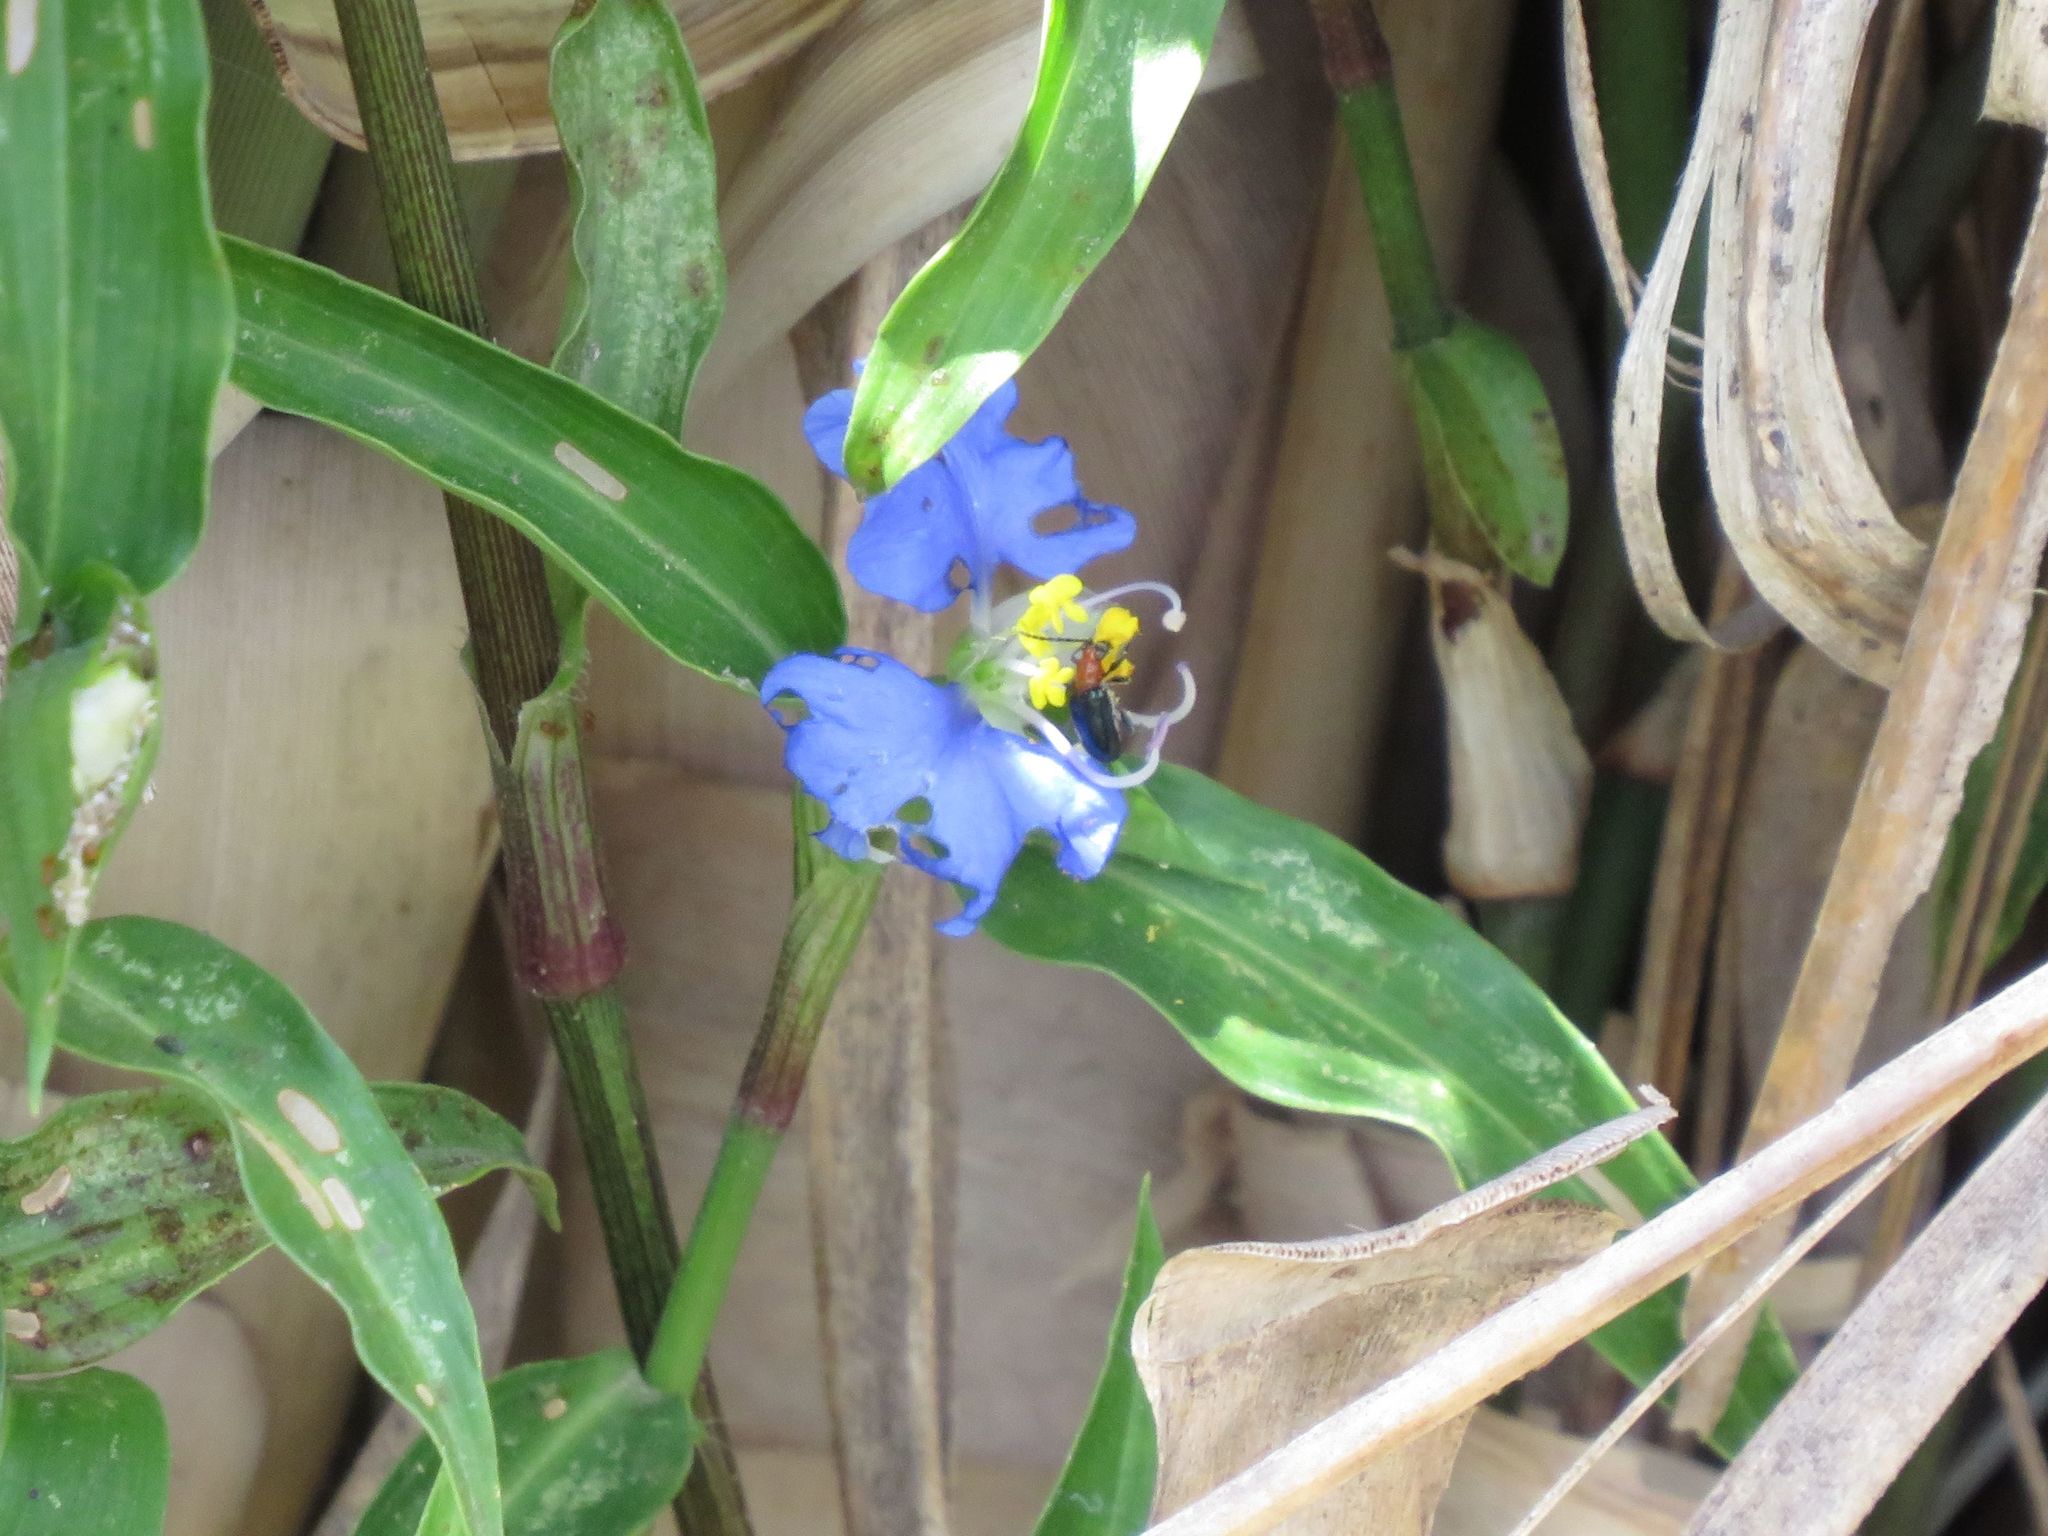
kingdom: Plantae
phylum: Tracheophyta
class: Liliopsida
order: Commelinales
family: Commelinaceae
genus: Commelina
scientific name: Commelina erecta
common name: Blousel blommetjie
